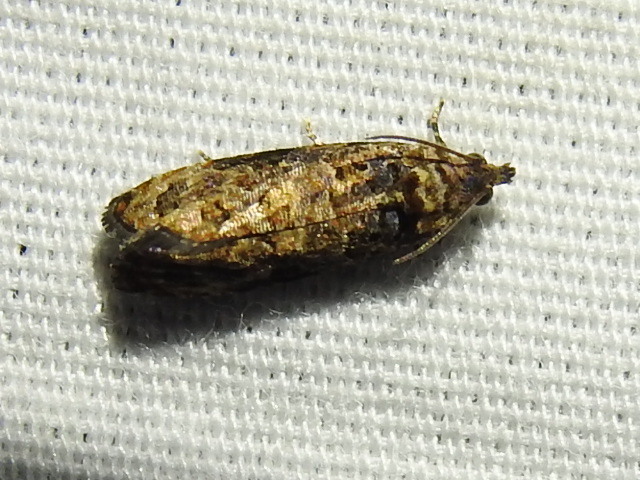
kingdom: Animalia
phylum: Arthropoda
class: Insecta
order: Lepidoptera
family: Tortricidae
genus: Endothenia
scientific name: Endothenia hebesana
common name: Verbena bud moth
